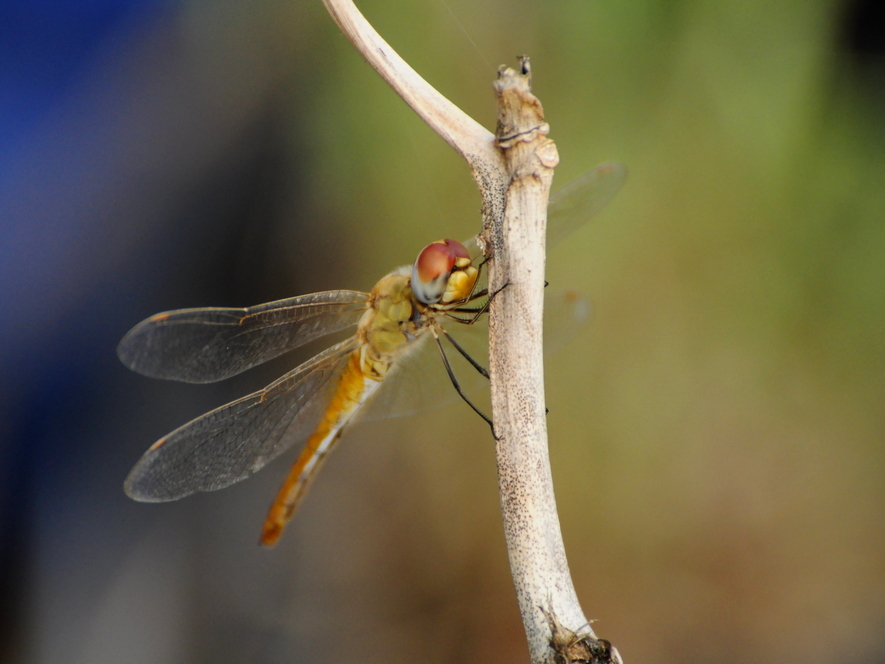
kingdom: Animalia
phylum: Arthropoda
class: Insecta
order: Odonata
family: Libellulidae
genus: Pantala
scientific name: Pantala flavescens
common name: Wandering glider
